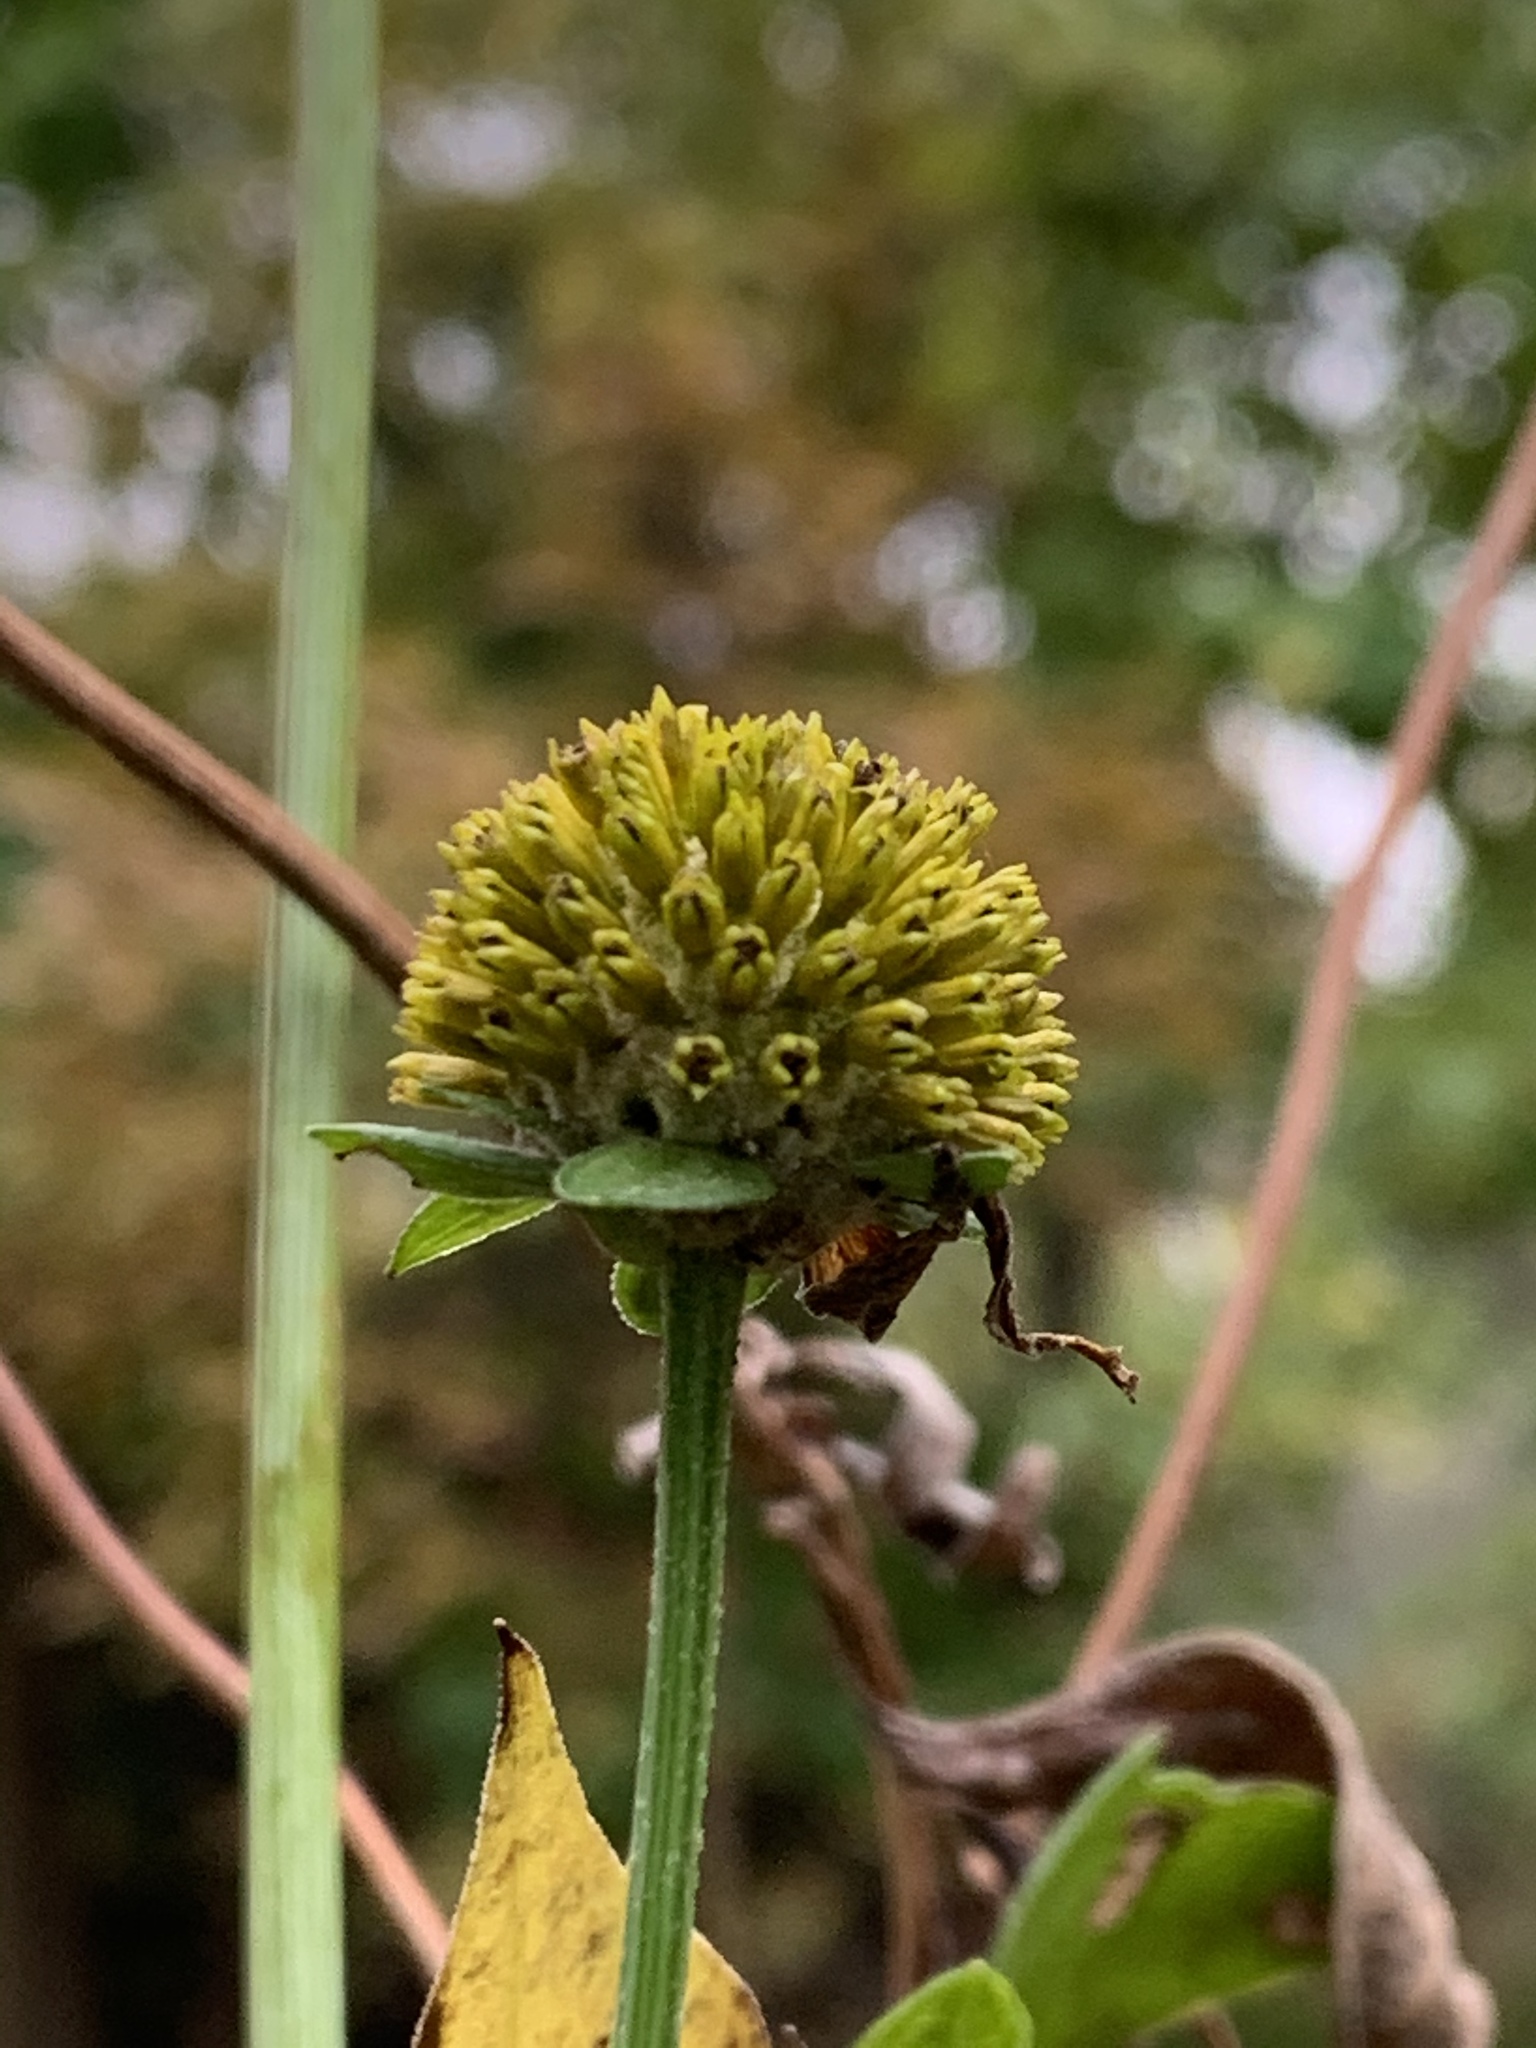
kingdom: Plantae
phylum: Tracheophyta
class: Magnoliopsida
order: Asterales
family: Asteraceae
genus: Rudbeckia
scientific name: Rudbeckia laciniata
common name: Coneflower
